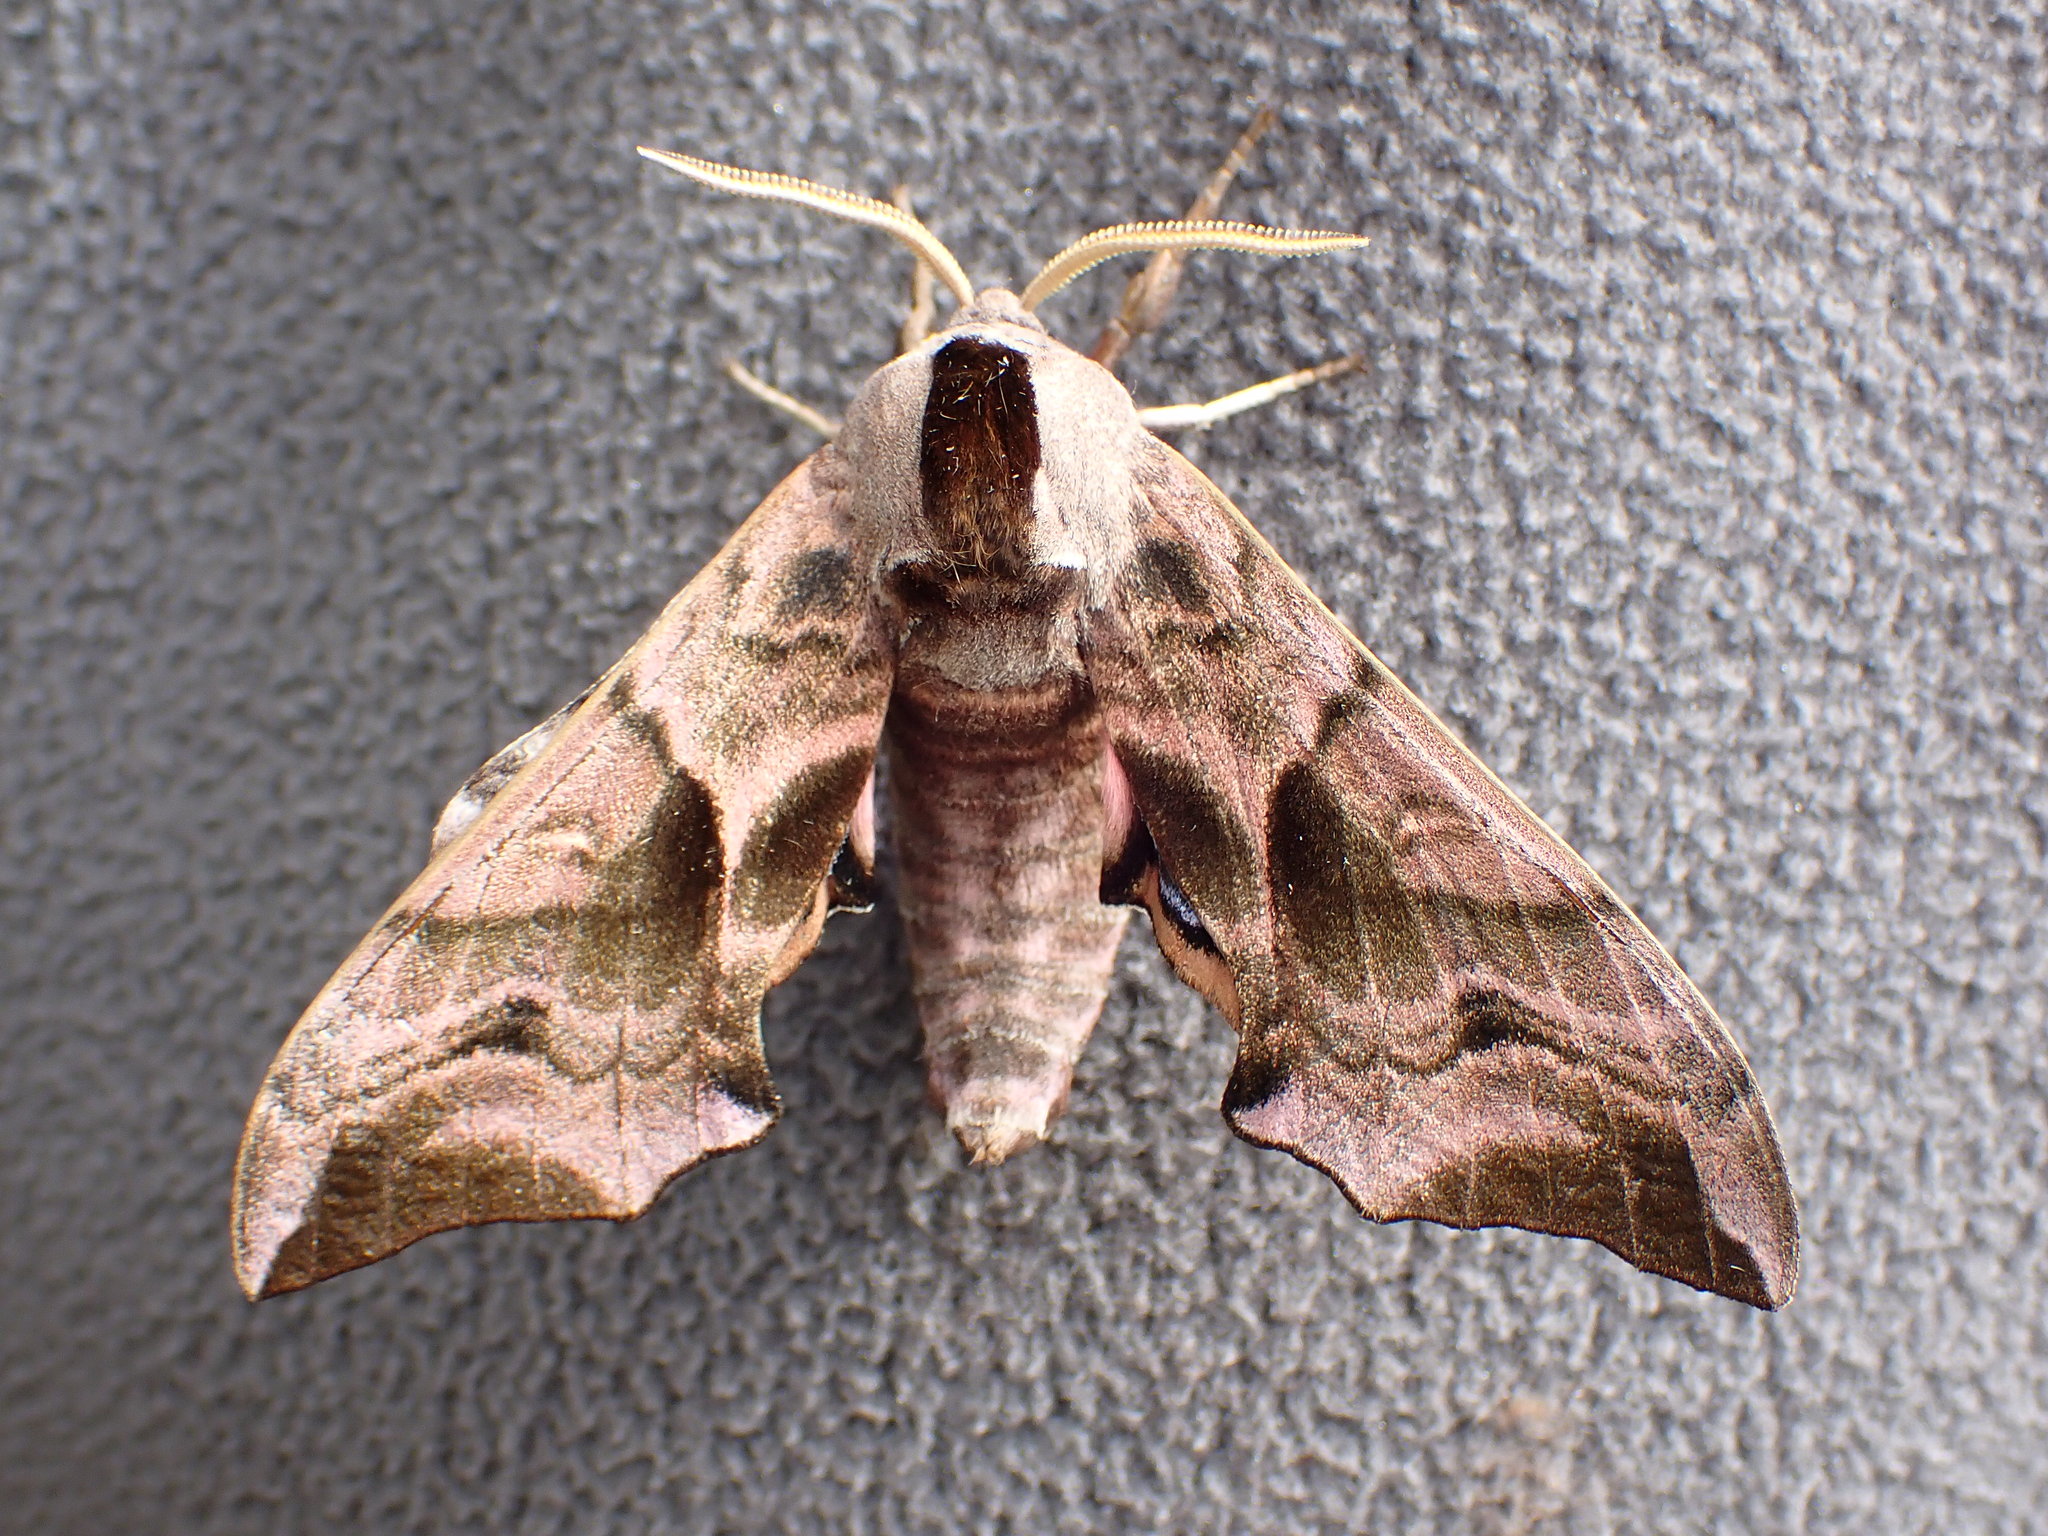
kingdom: Animalia
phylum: Arthropoda
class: Insecta
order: Lepidoptera
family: Sphingidae
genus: Smerinthus
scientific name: Smerinthus ocellata
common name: Eyed hawk-moth
